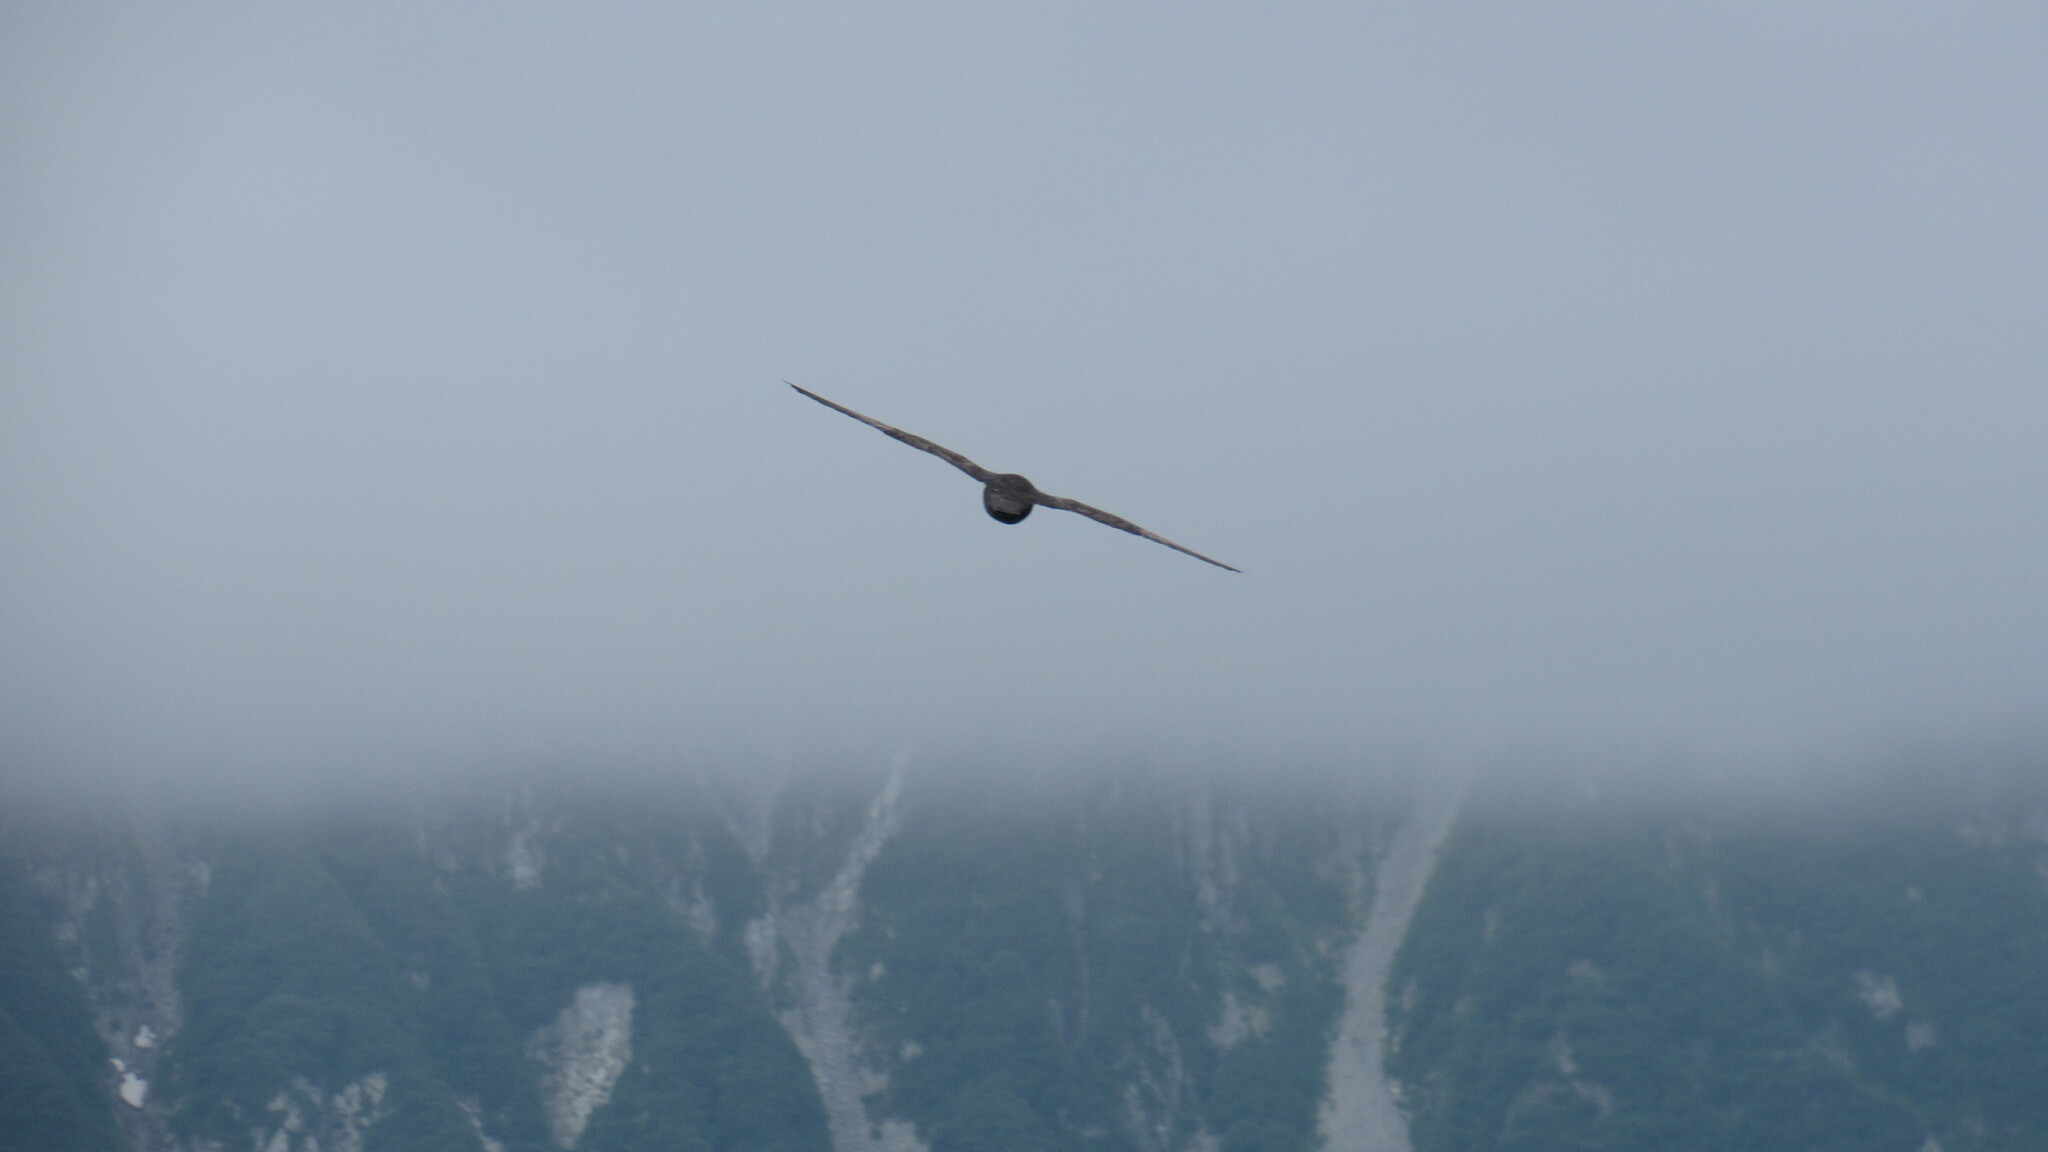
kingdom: Animalia
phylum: Chordata
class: Aves
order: Procellariiformes
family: Procellariidae
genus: Fulmarus
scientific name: Fulmarus glacialis
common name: Northern fulmar
